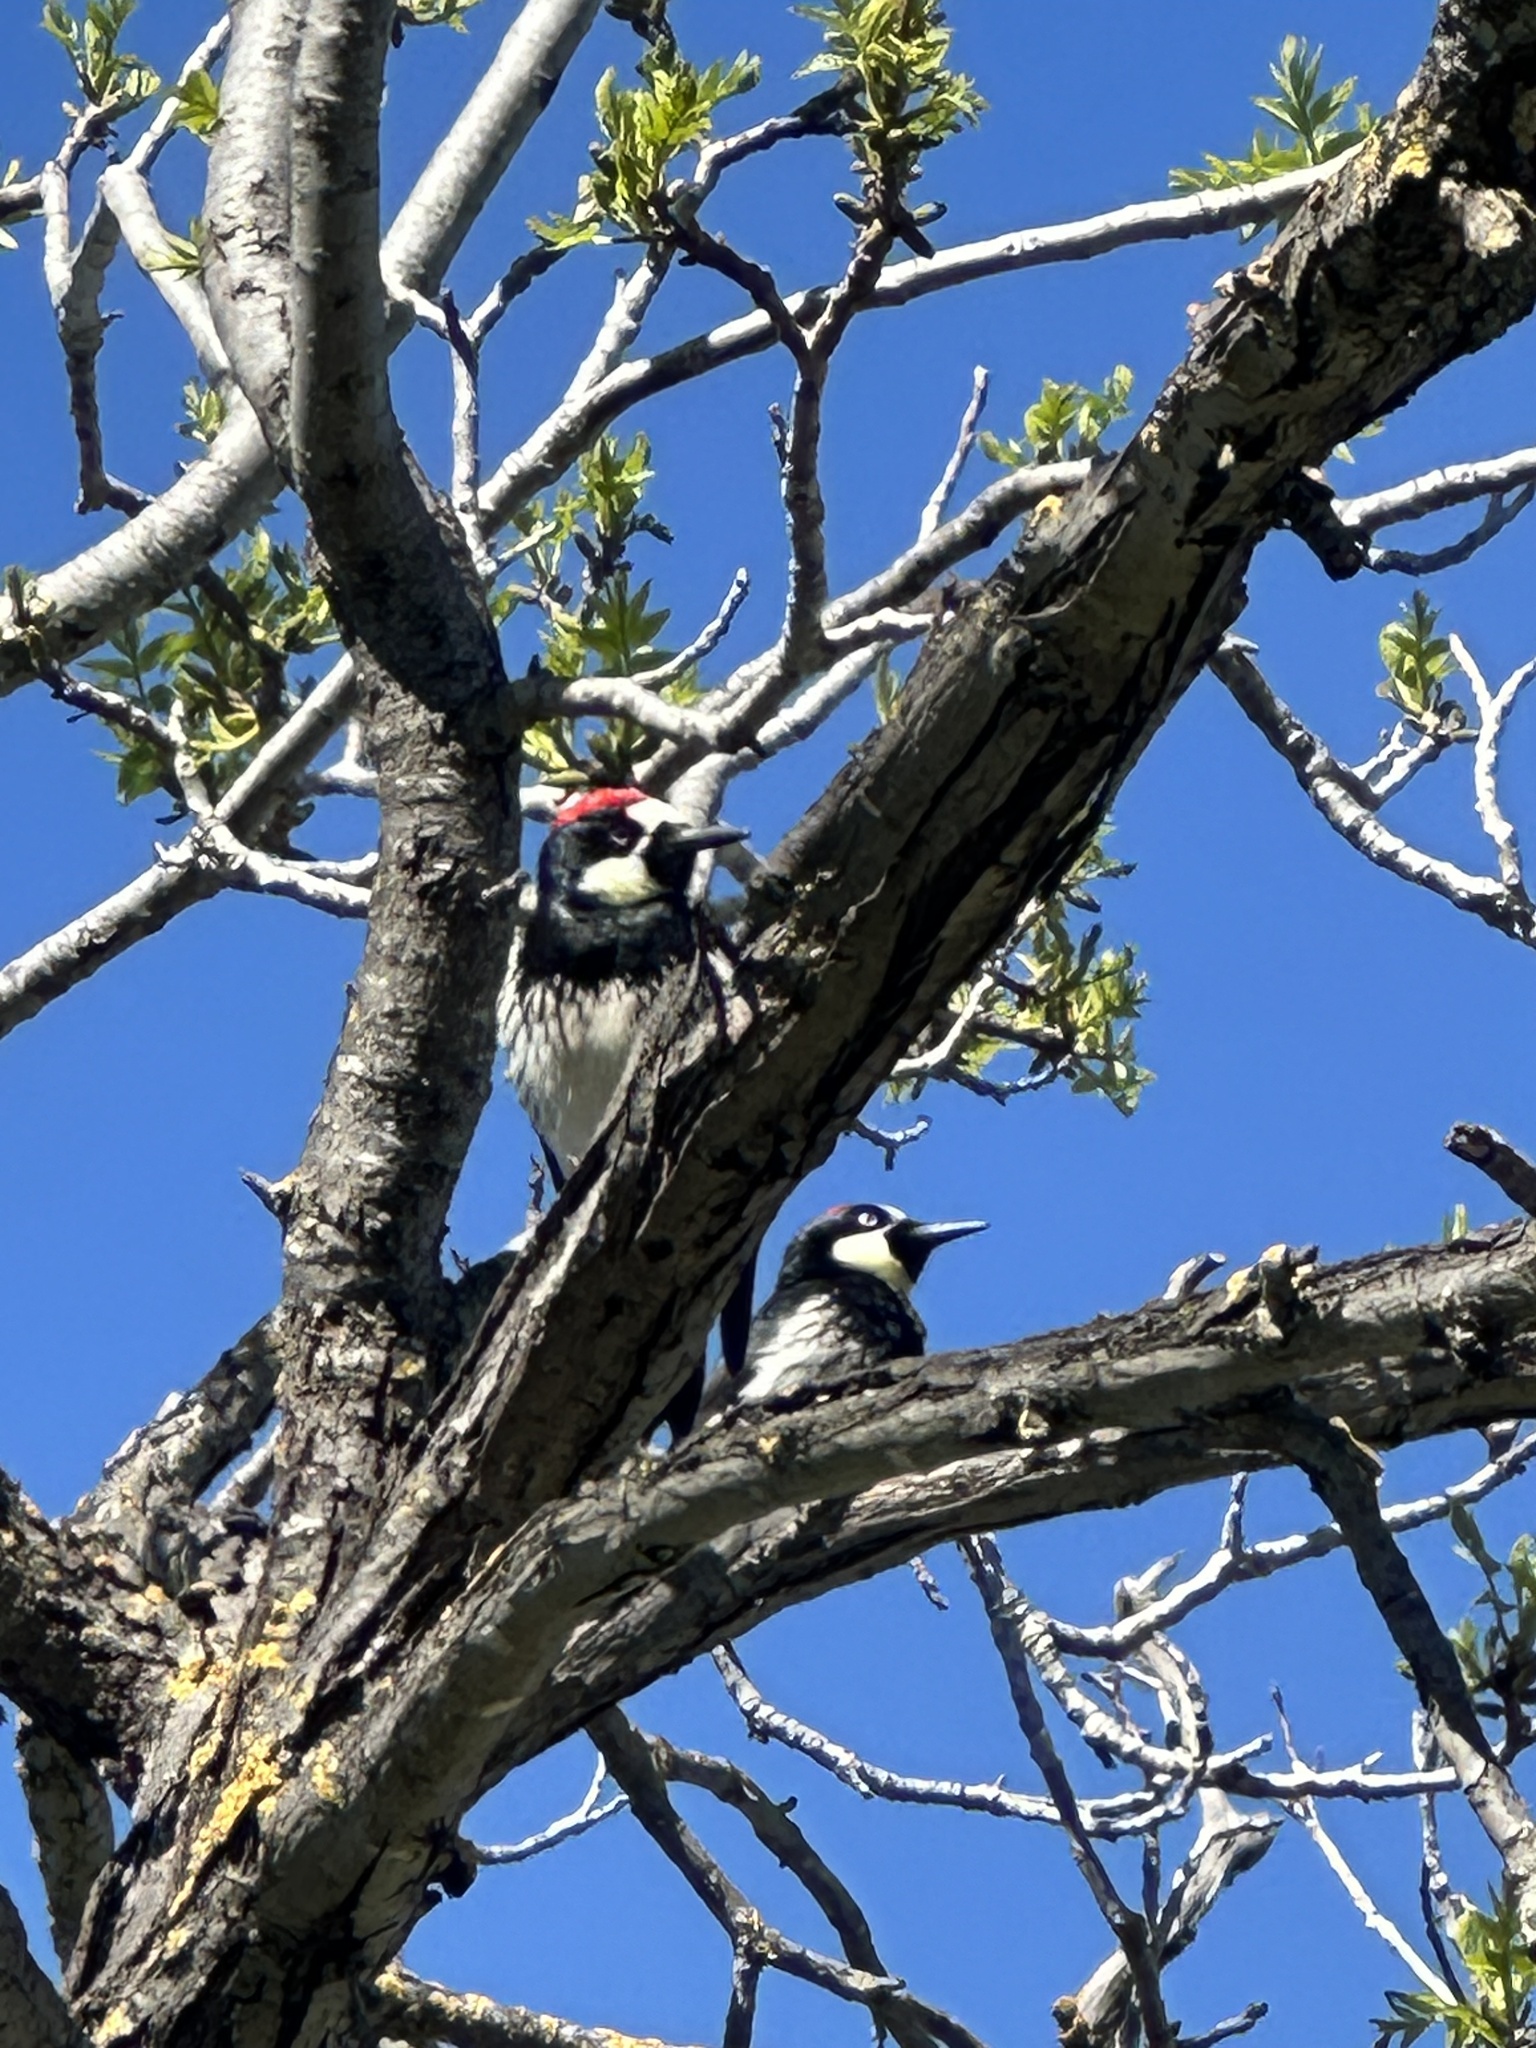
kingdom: Animalia
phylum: Chordata
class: Aves
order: Piciformes
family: Picidae
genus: Melanerpes
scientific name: Melanerpes formicivorus
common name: Acorn woodpecker
